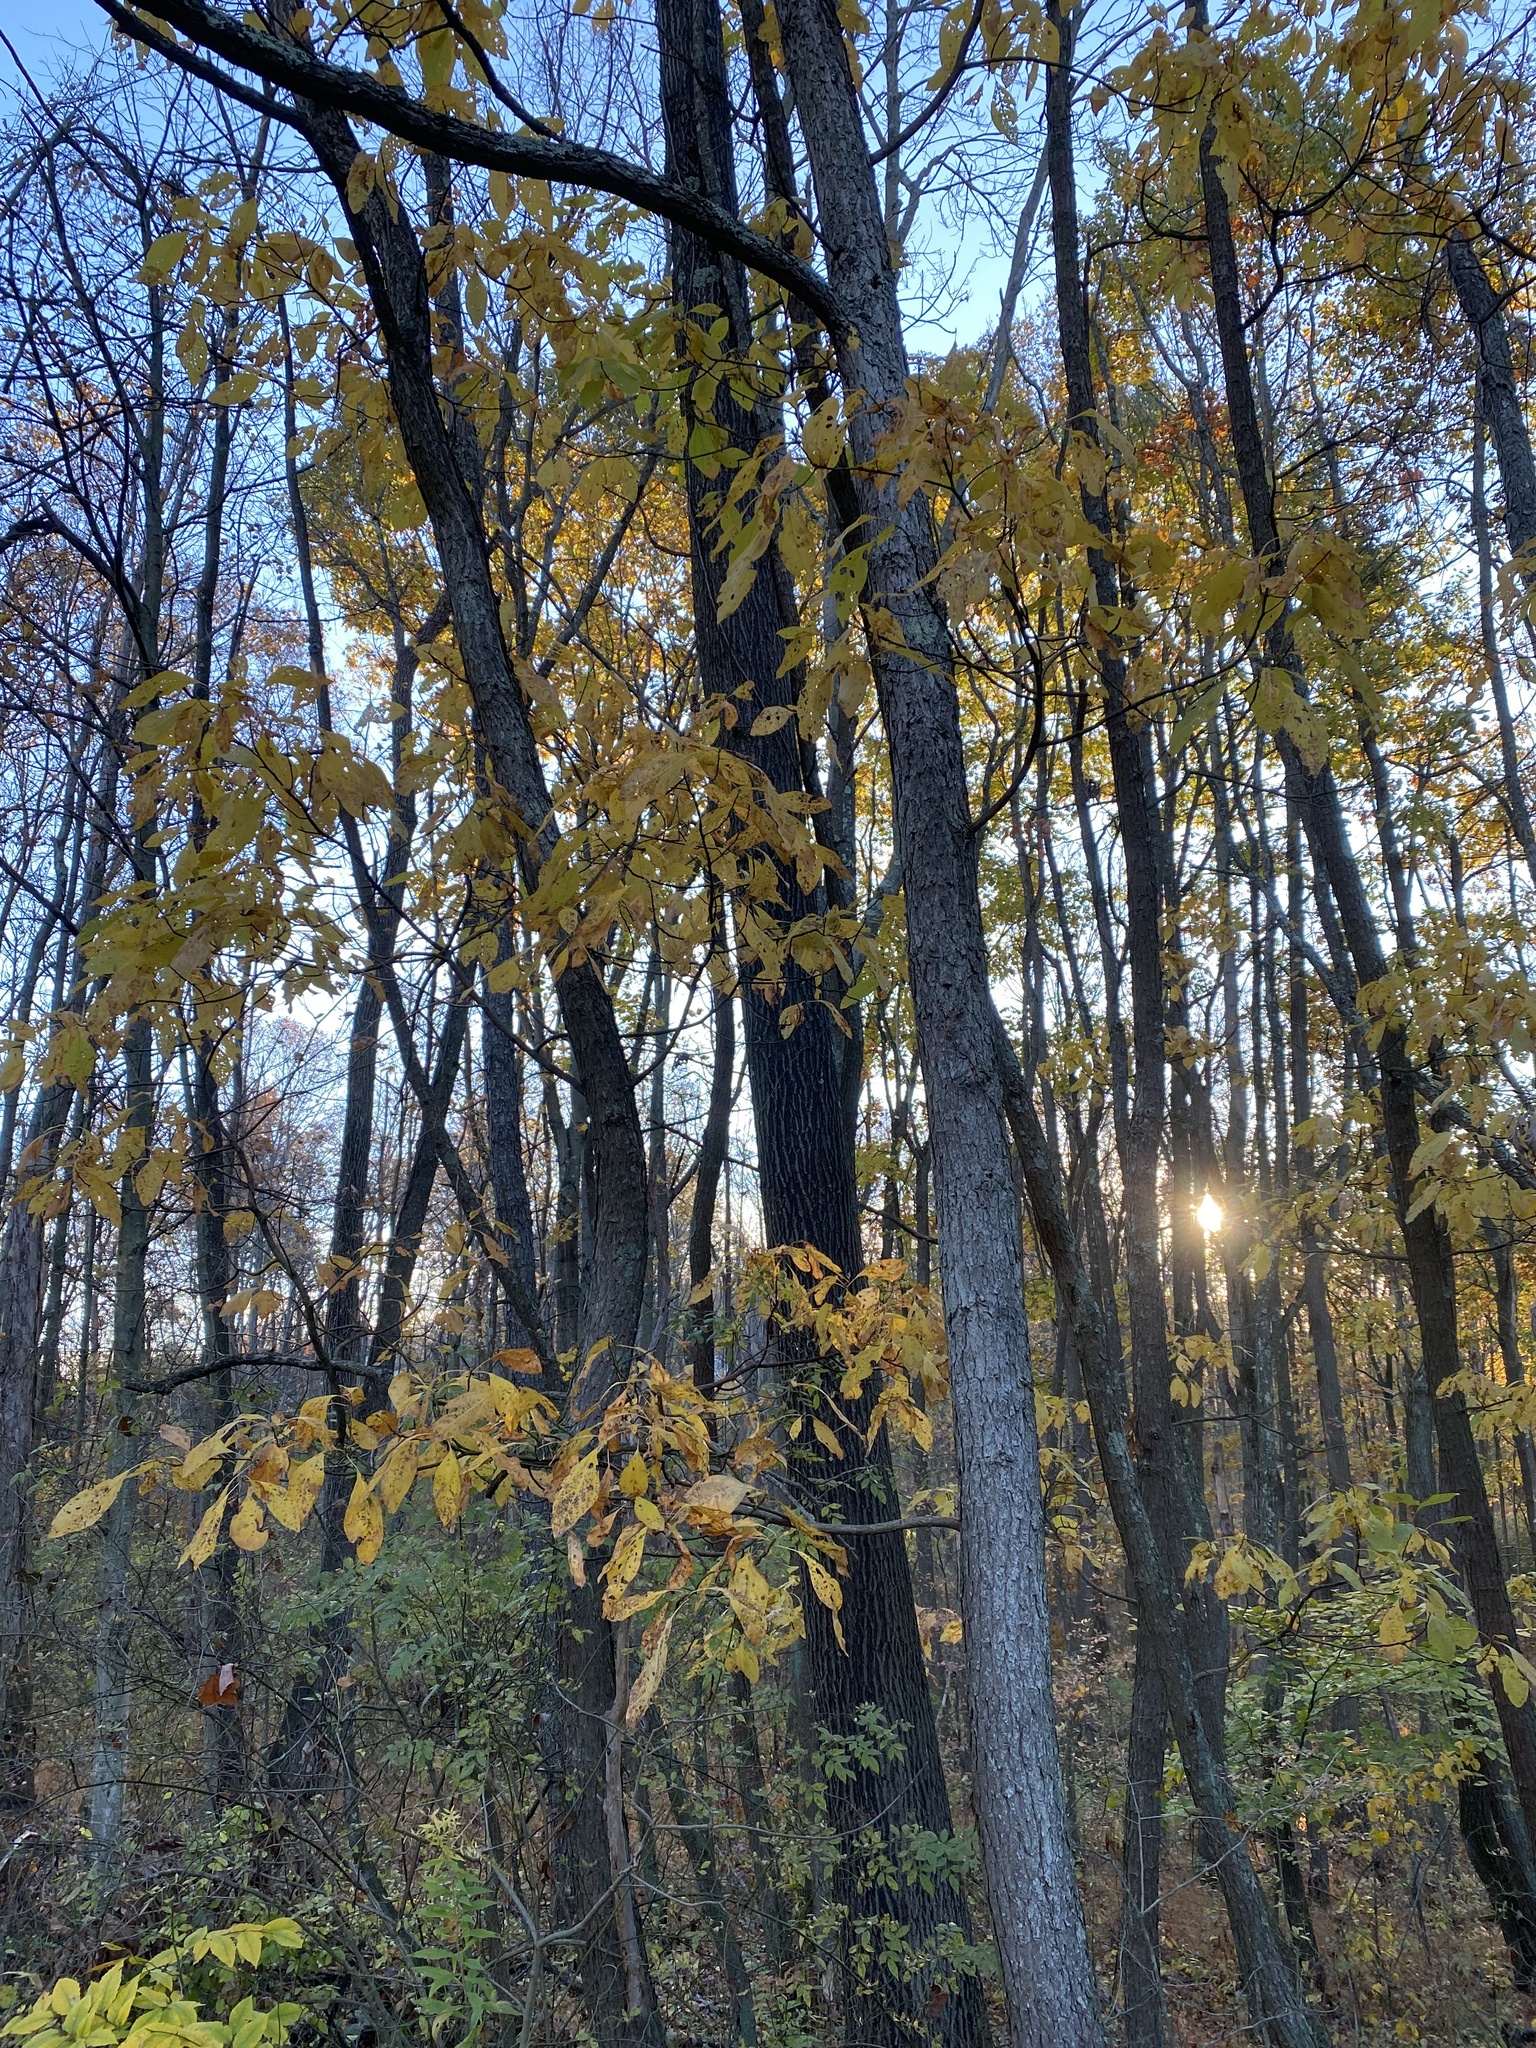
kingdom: Plantae
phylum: Tracheophyta
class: Magnoliopsida
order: Laurales
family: Lauraceae
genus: Sassafras
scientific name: Sassafras albidum
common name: Sassafras
